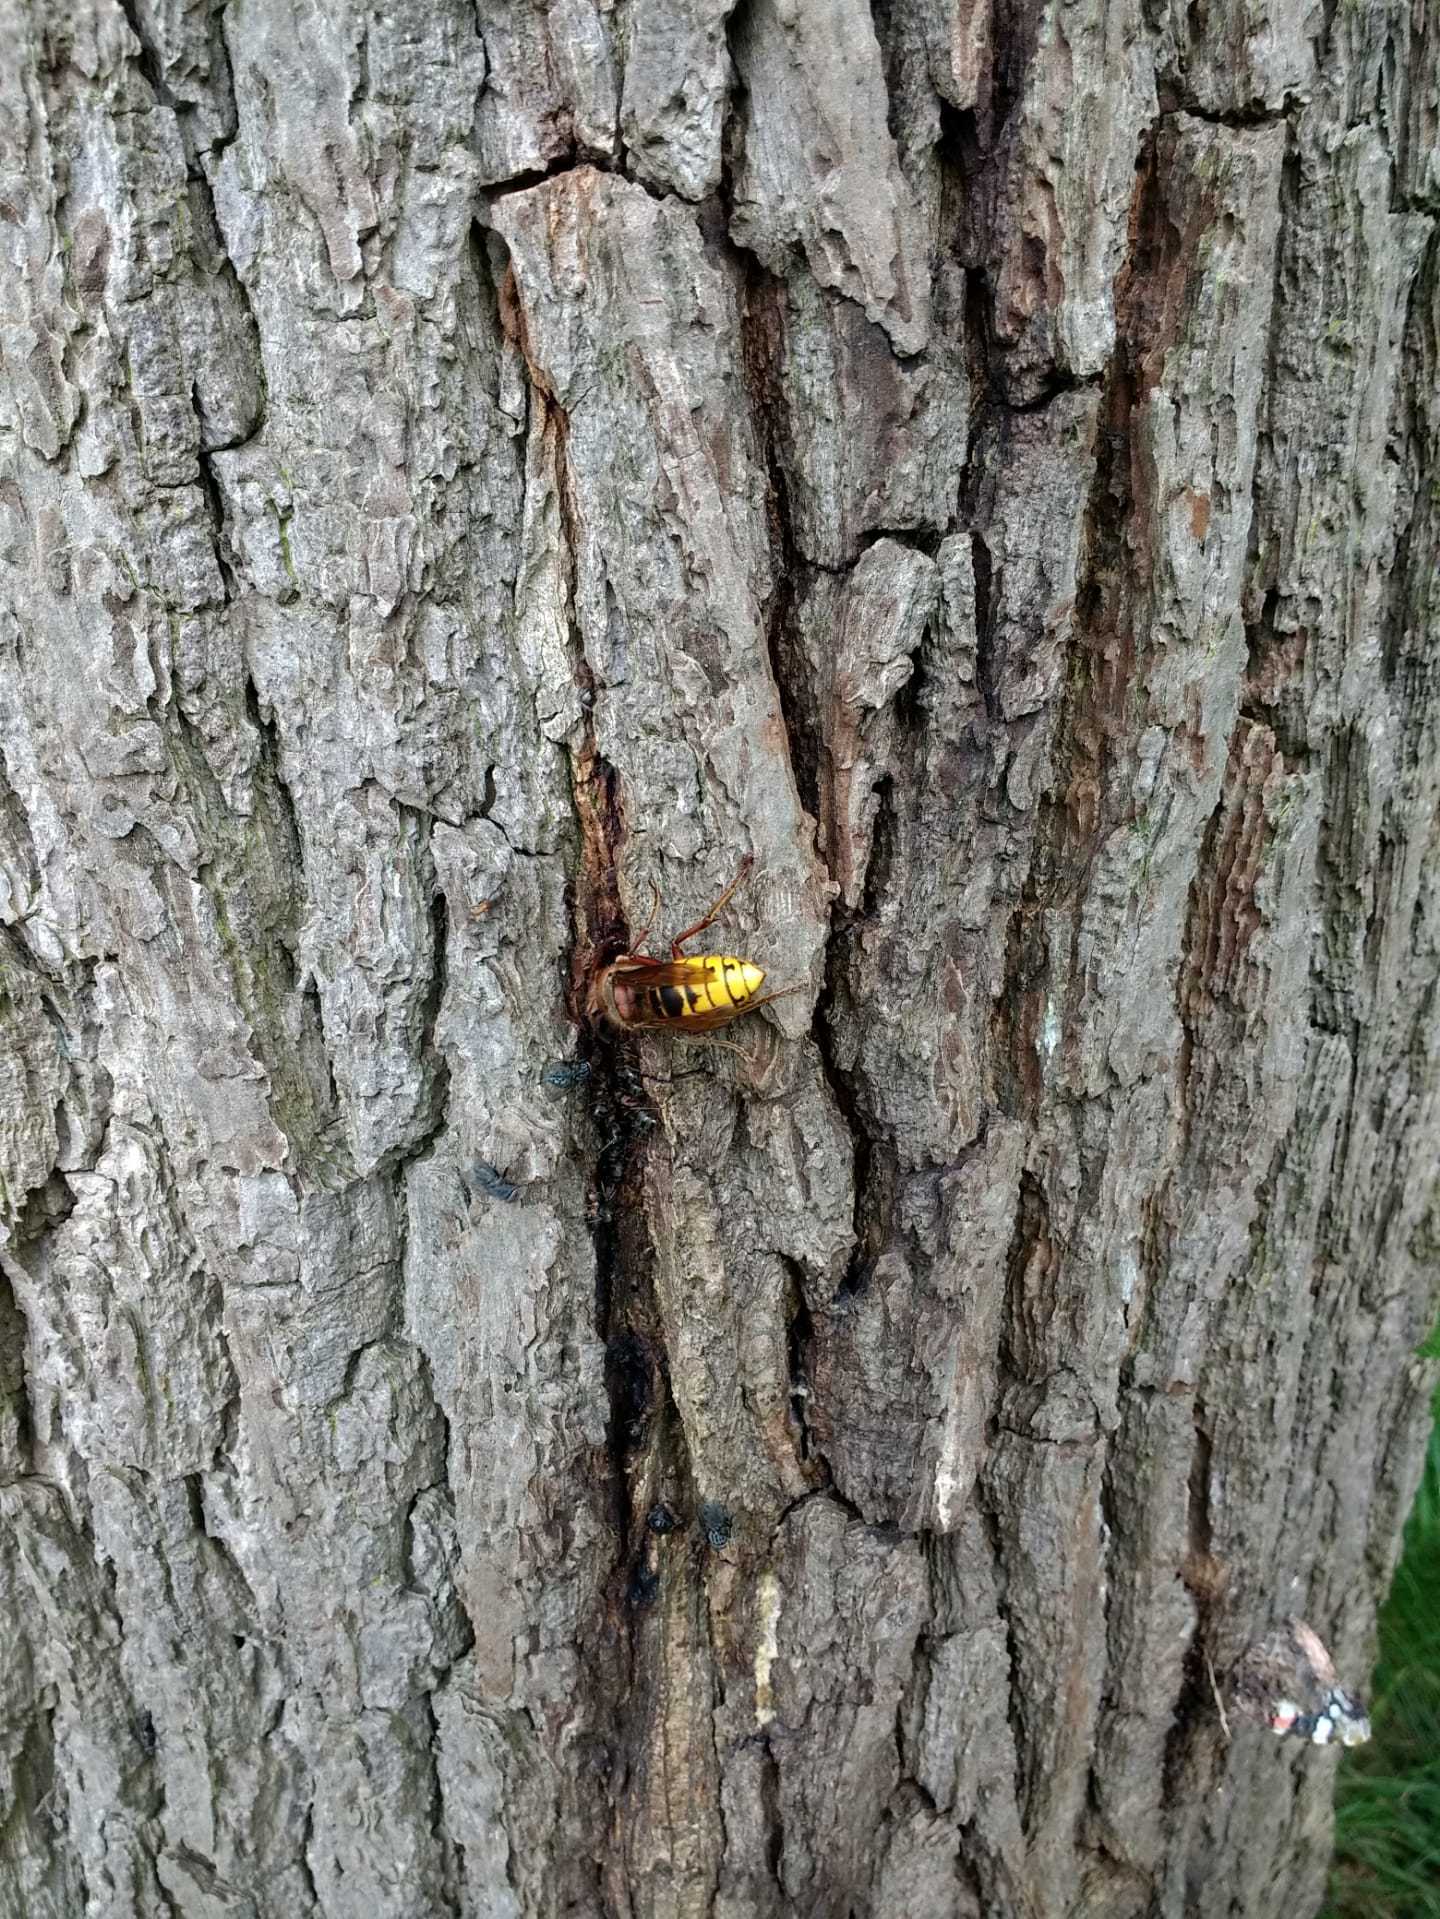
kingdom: Animalia
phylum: Arthropoda
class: Insecta
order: Hymenoptera
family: Vespidae
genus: Vespa
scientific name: Vespa crabro
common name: Hornet
